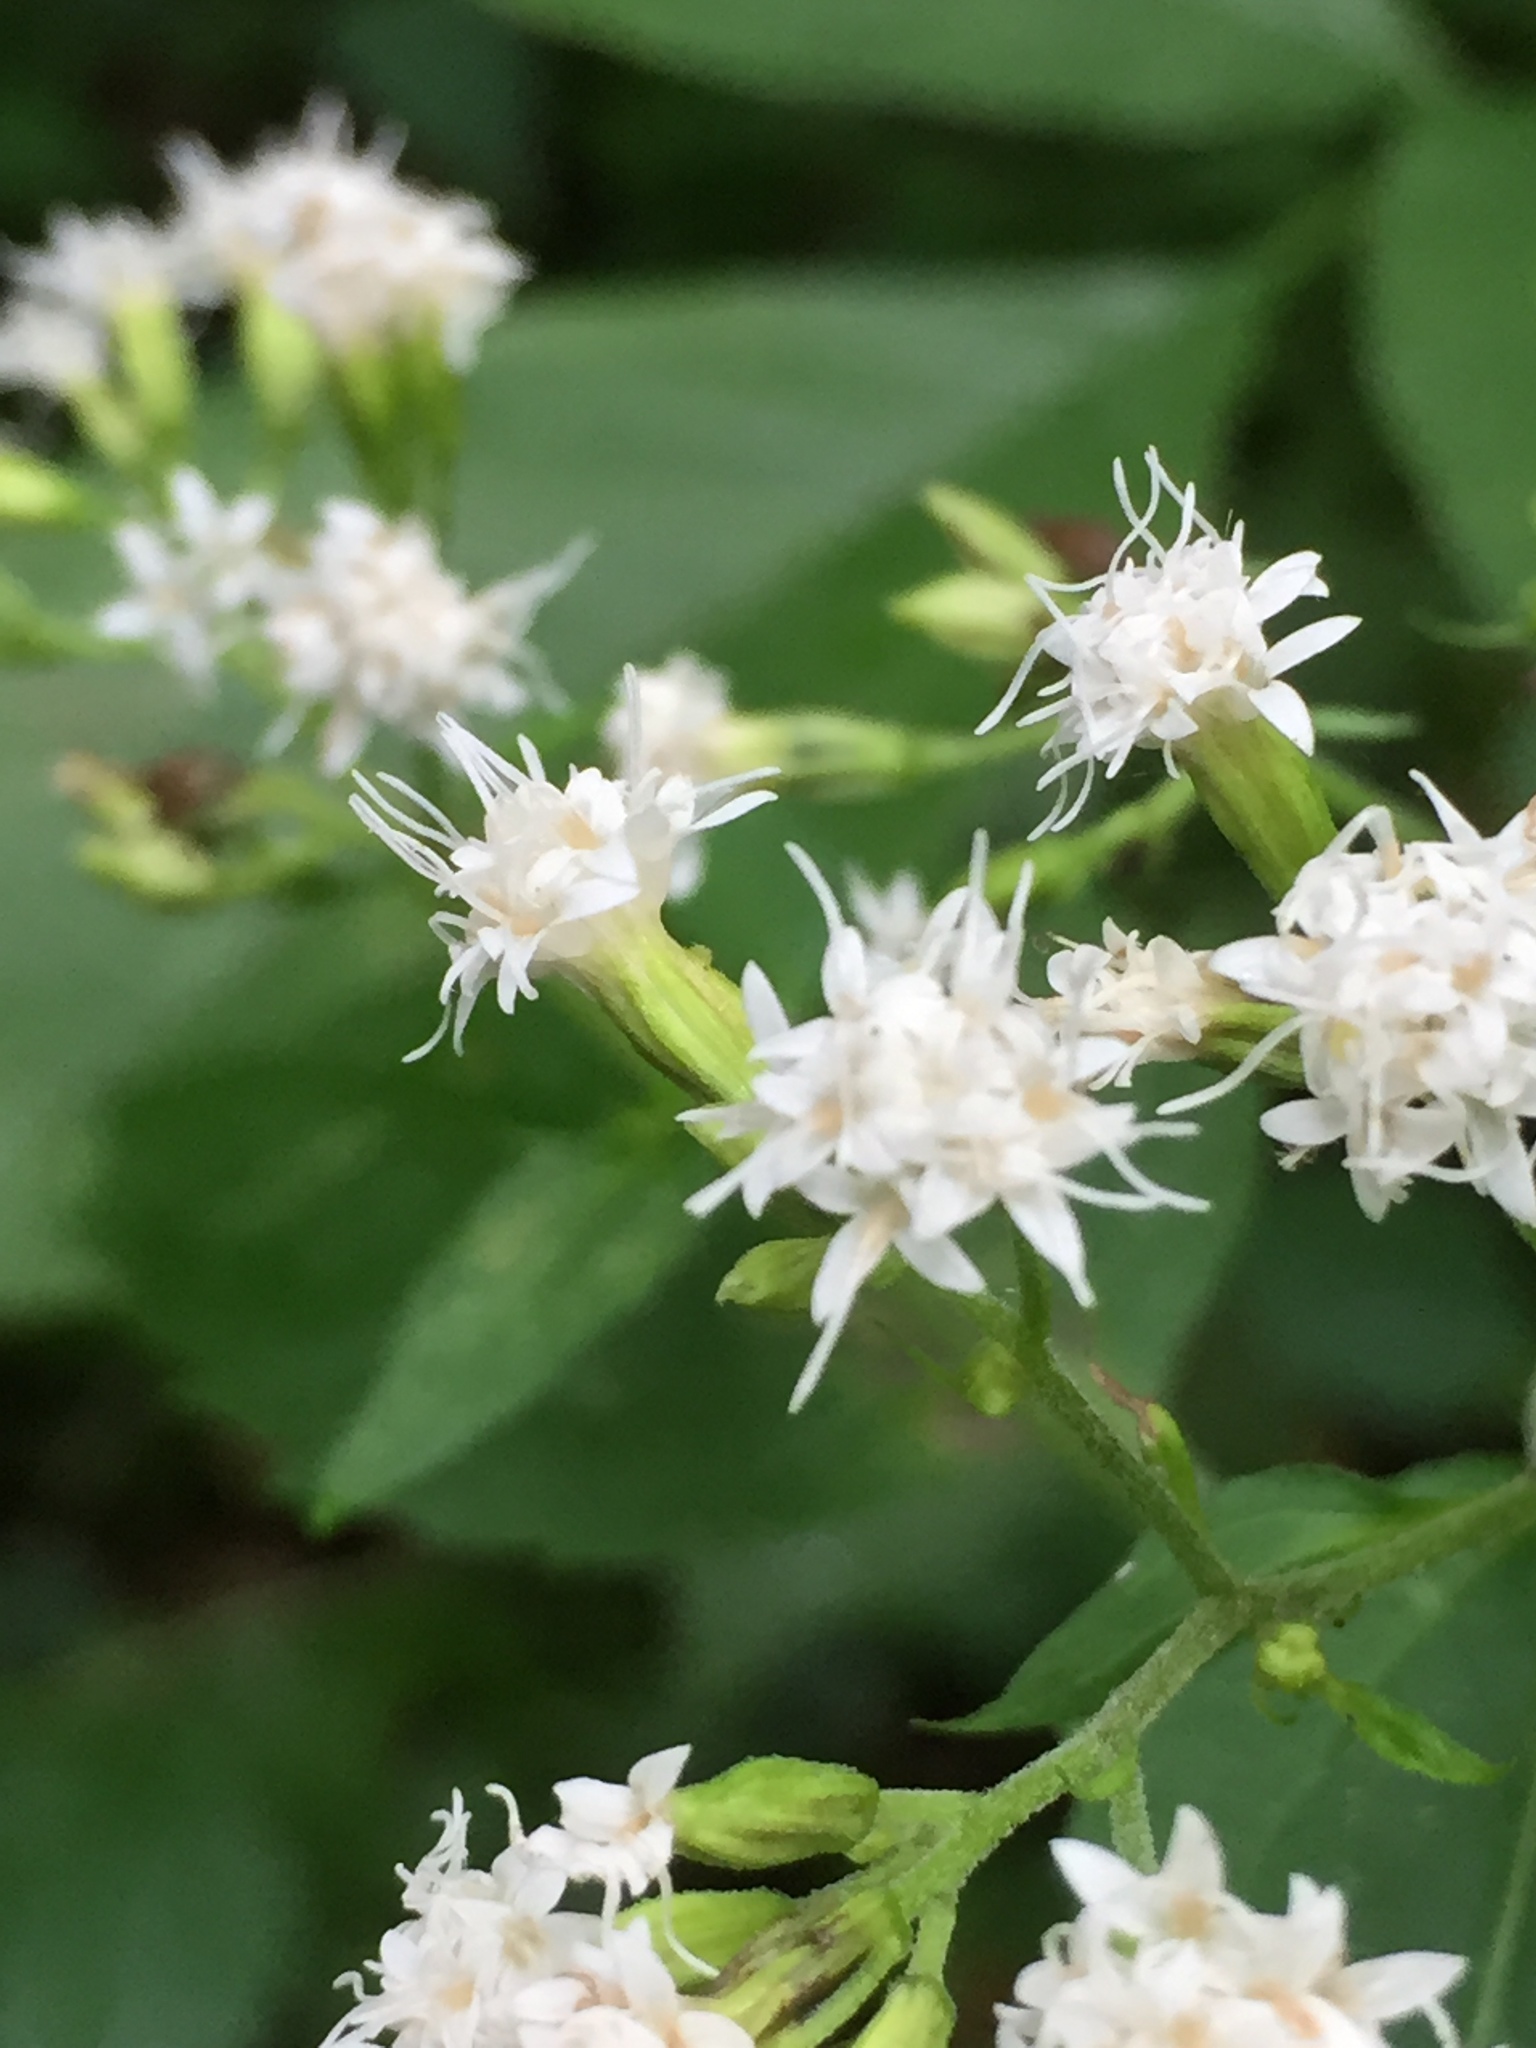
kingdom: Plantae
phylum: Tracheophyta
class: Magnoliopsida
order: Asterales
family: Asteraceae
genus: Ageratina
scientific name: Ageratina altissima
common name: White snakeroot
